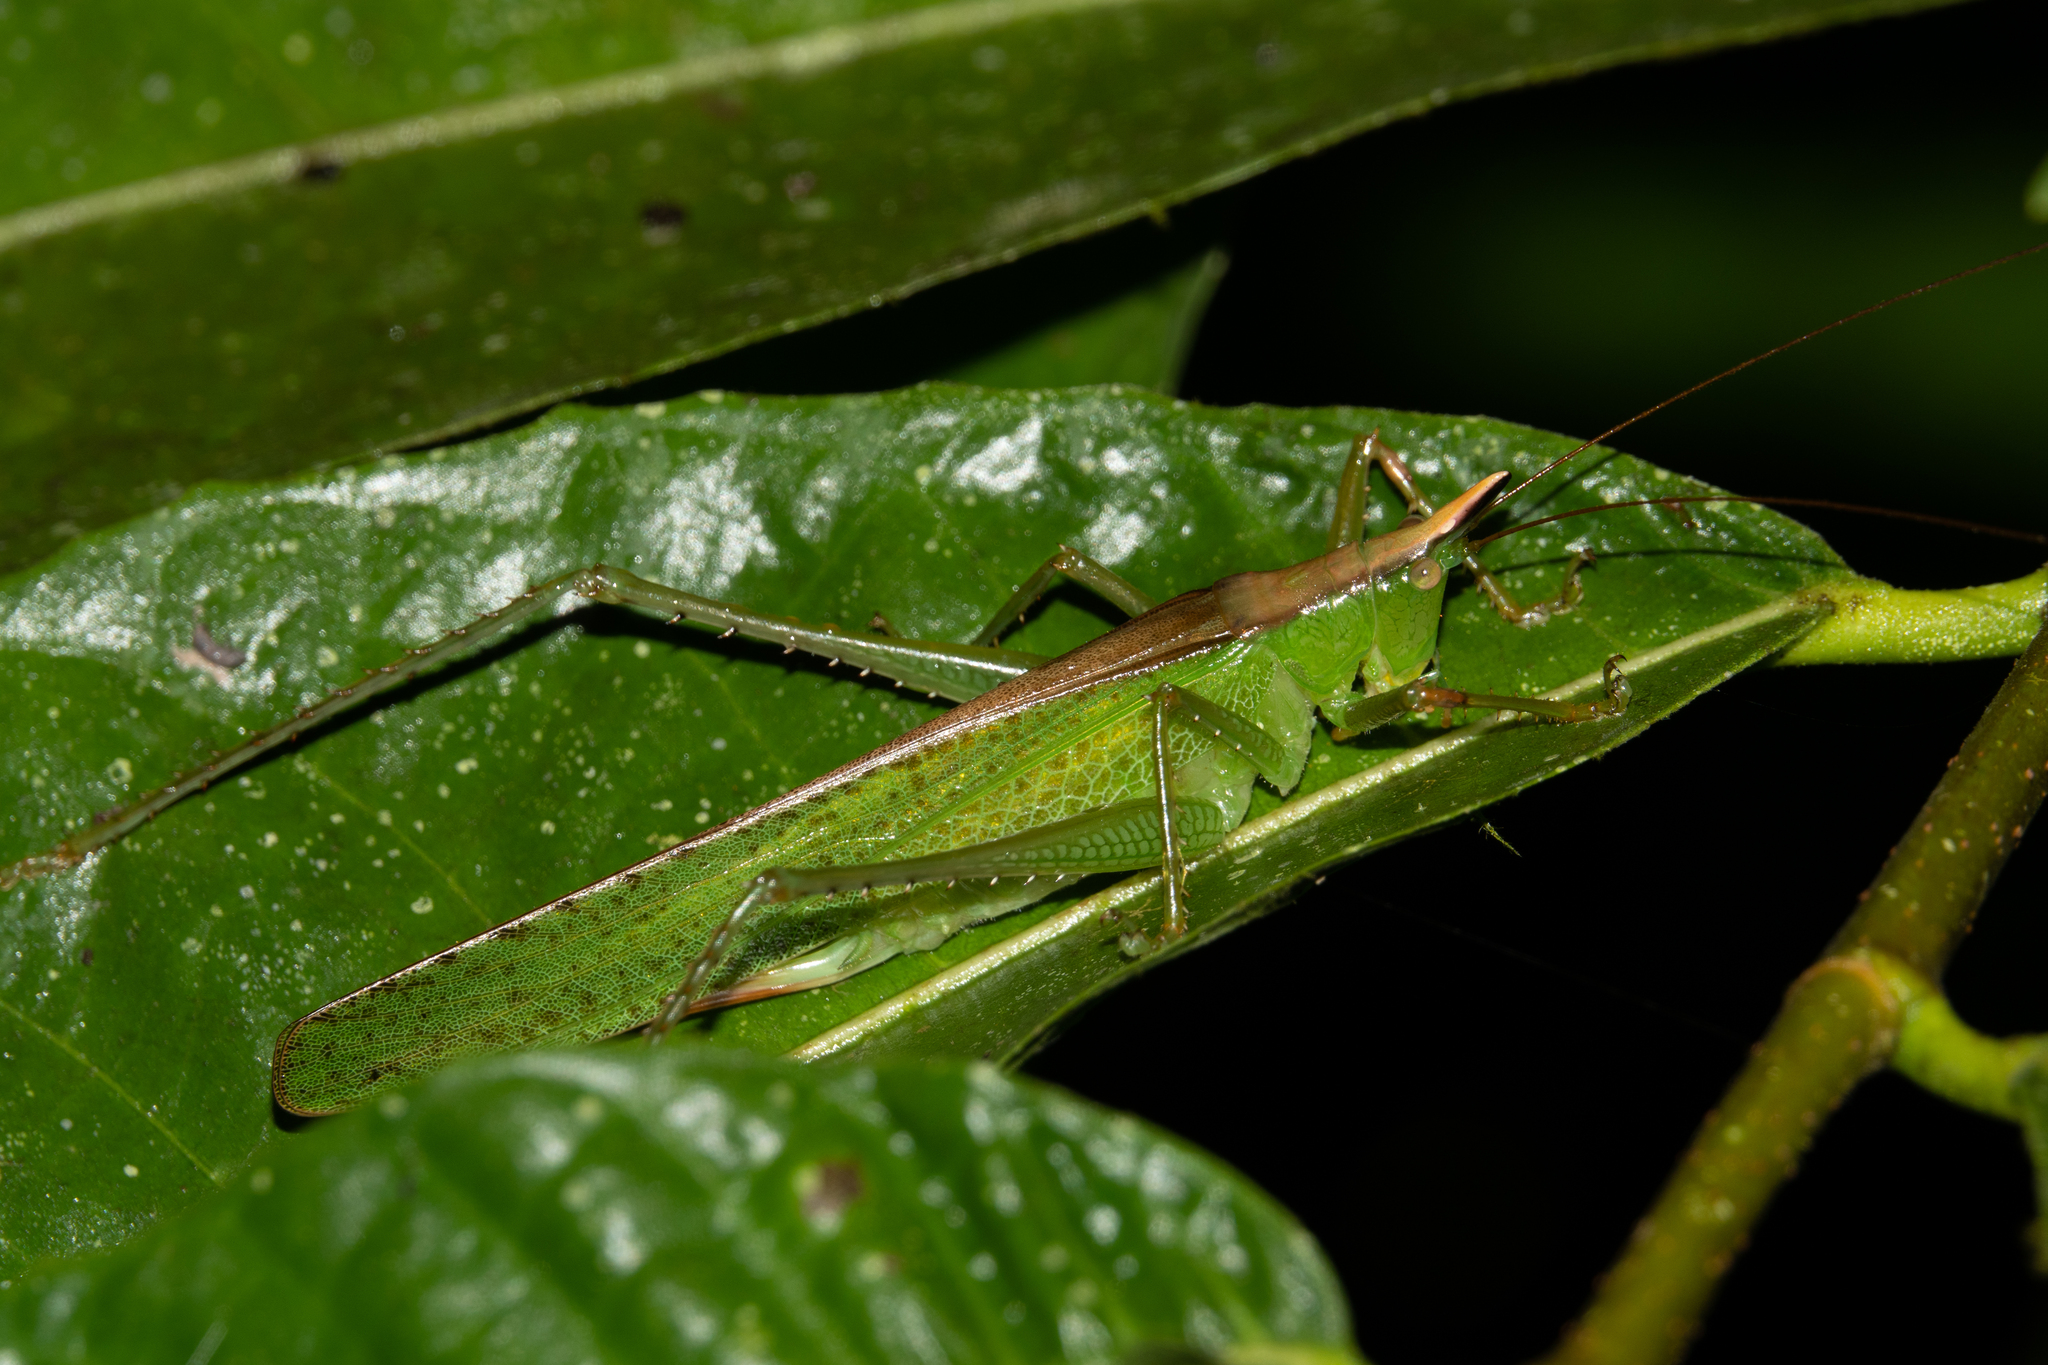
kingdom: Animalia
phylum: Arthropoda
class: Insecta
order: Orthoptera
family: Tettigoniidae
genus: Melanophoxus
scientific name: Melanophoxus brunneri
